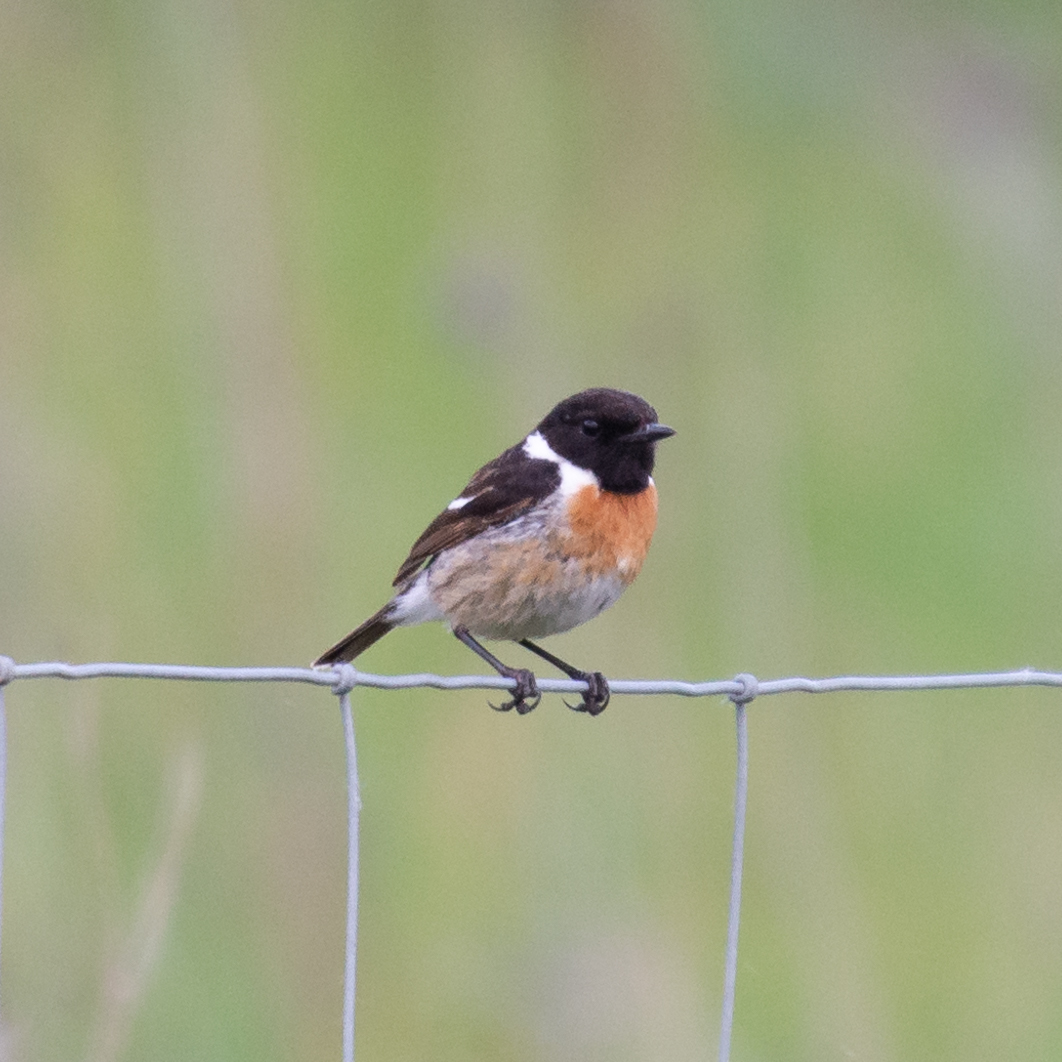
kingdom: Animalia
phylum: Chordata
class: Aves
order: Passeriformes
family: Muscicapidae
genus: Saxicola
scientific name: Saxicola rubicola
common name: European stonechat
